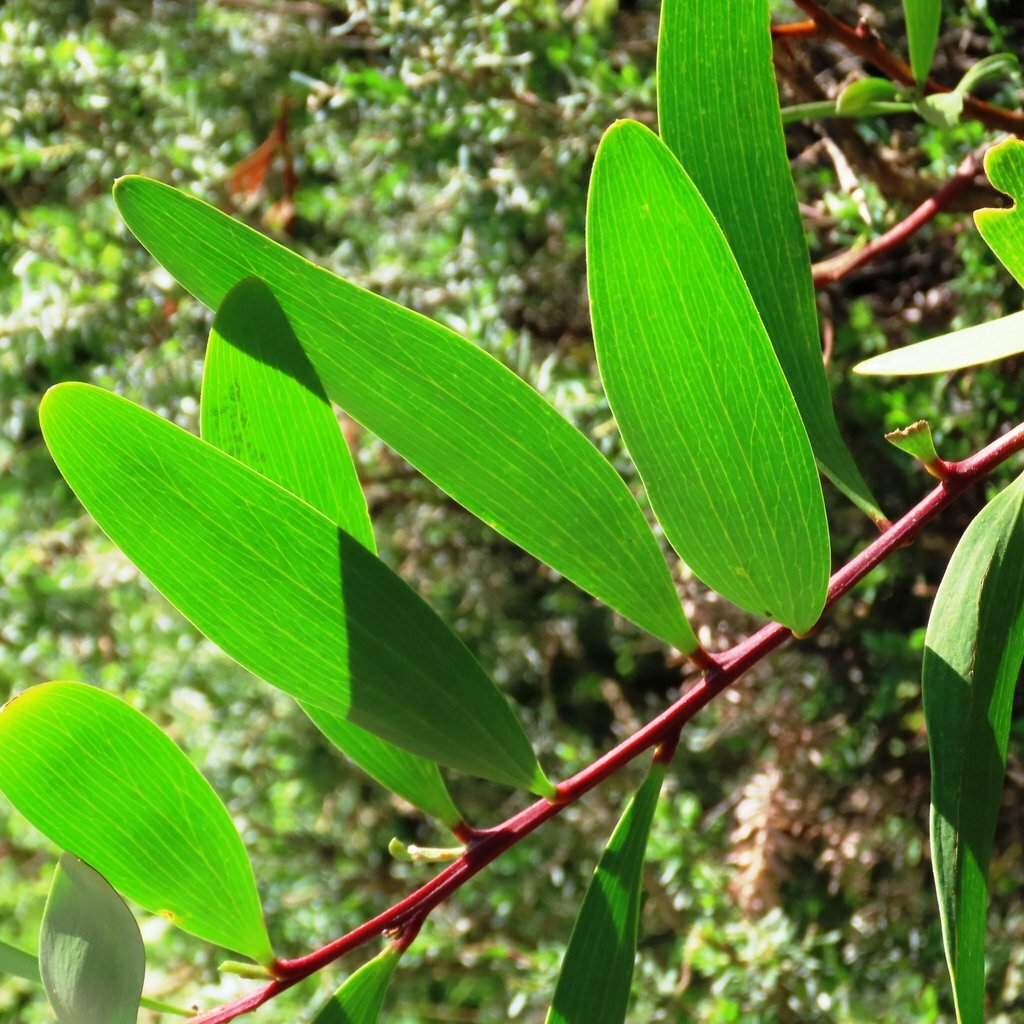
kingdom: Plantae
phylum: Tracheophyta
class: Magnoliopsida
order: Fabales
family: Fabaceae
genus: Acacia
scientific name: Acacia longifolia
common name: Sydney golden wattle
